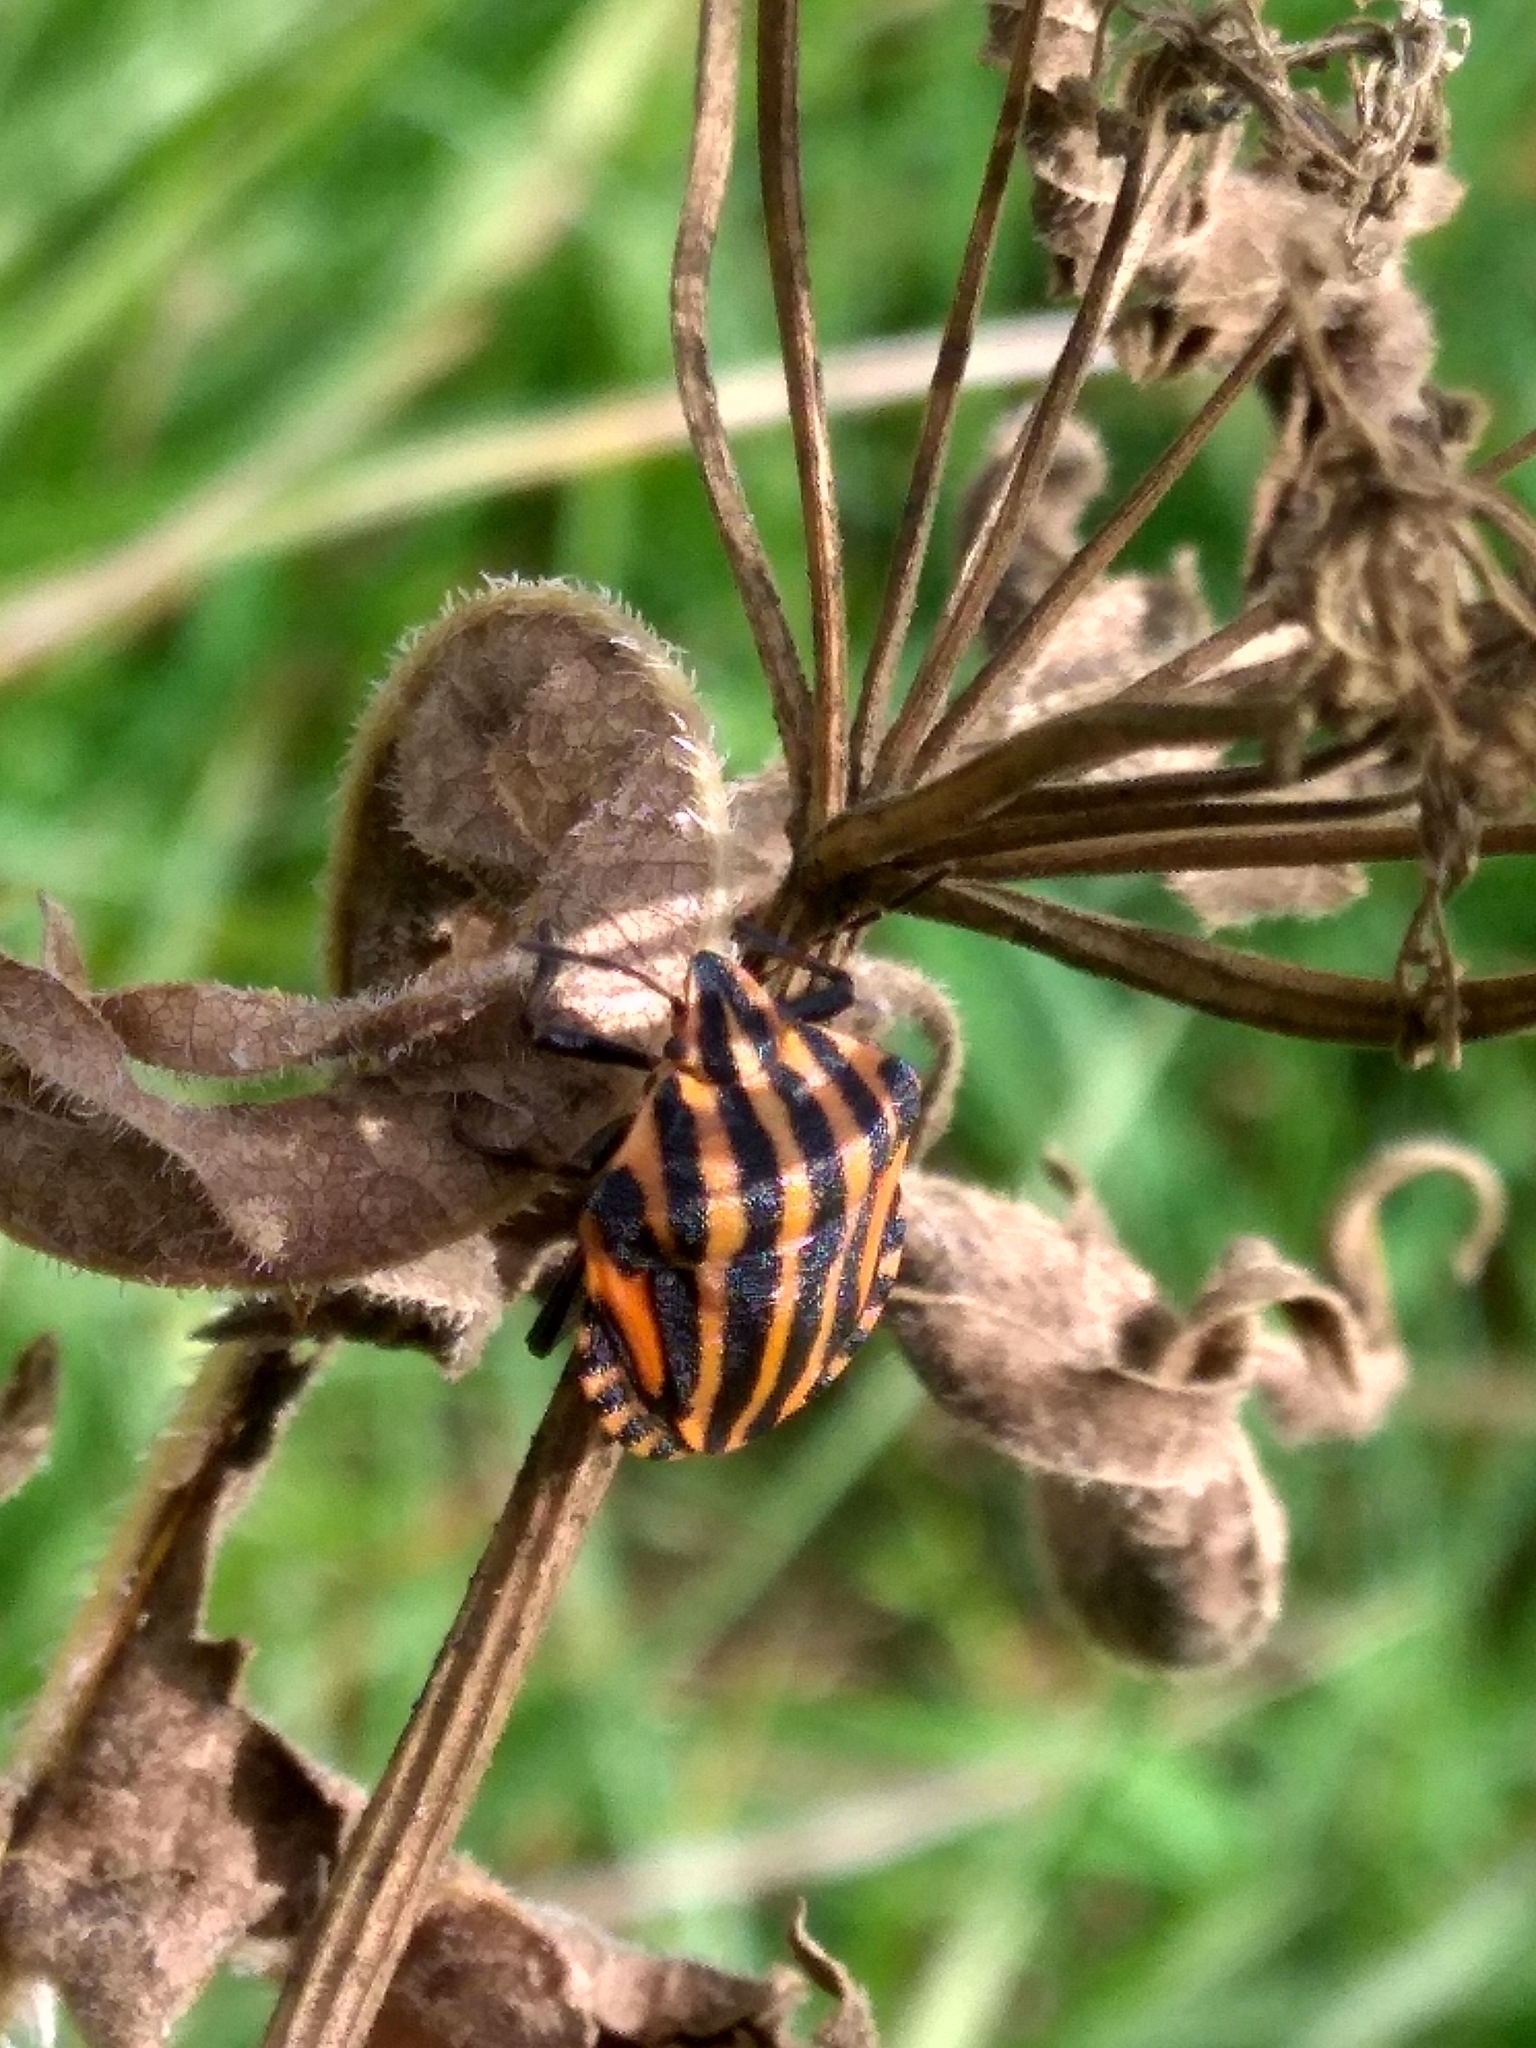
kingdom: Animalia
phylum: Arthropoda
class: Insecta
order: Hemiptera
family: Pentatomidae
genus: Graphosoma
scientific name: Graphosoma italicum
